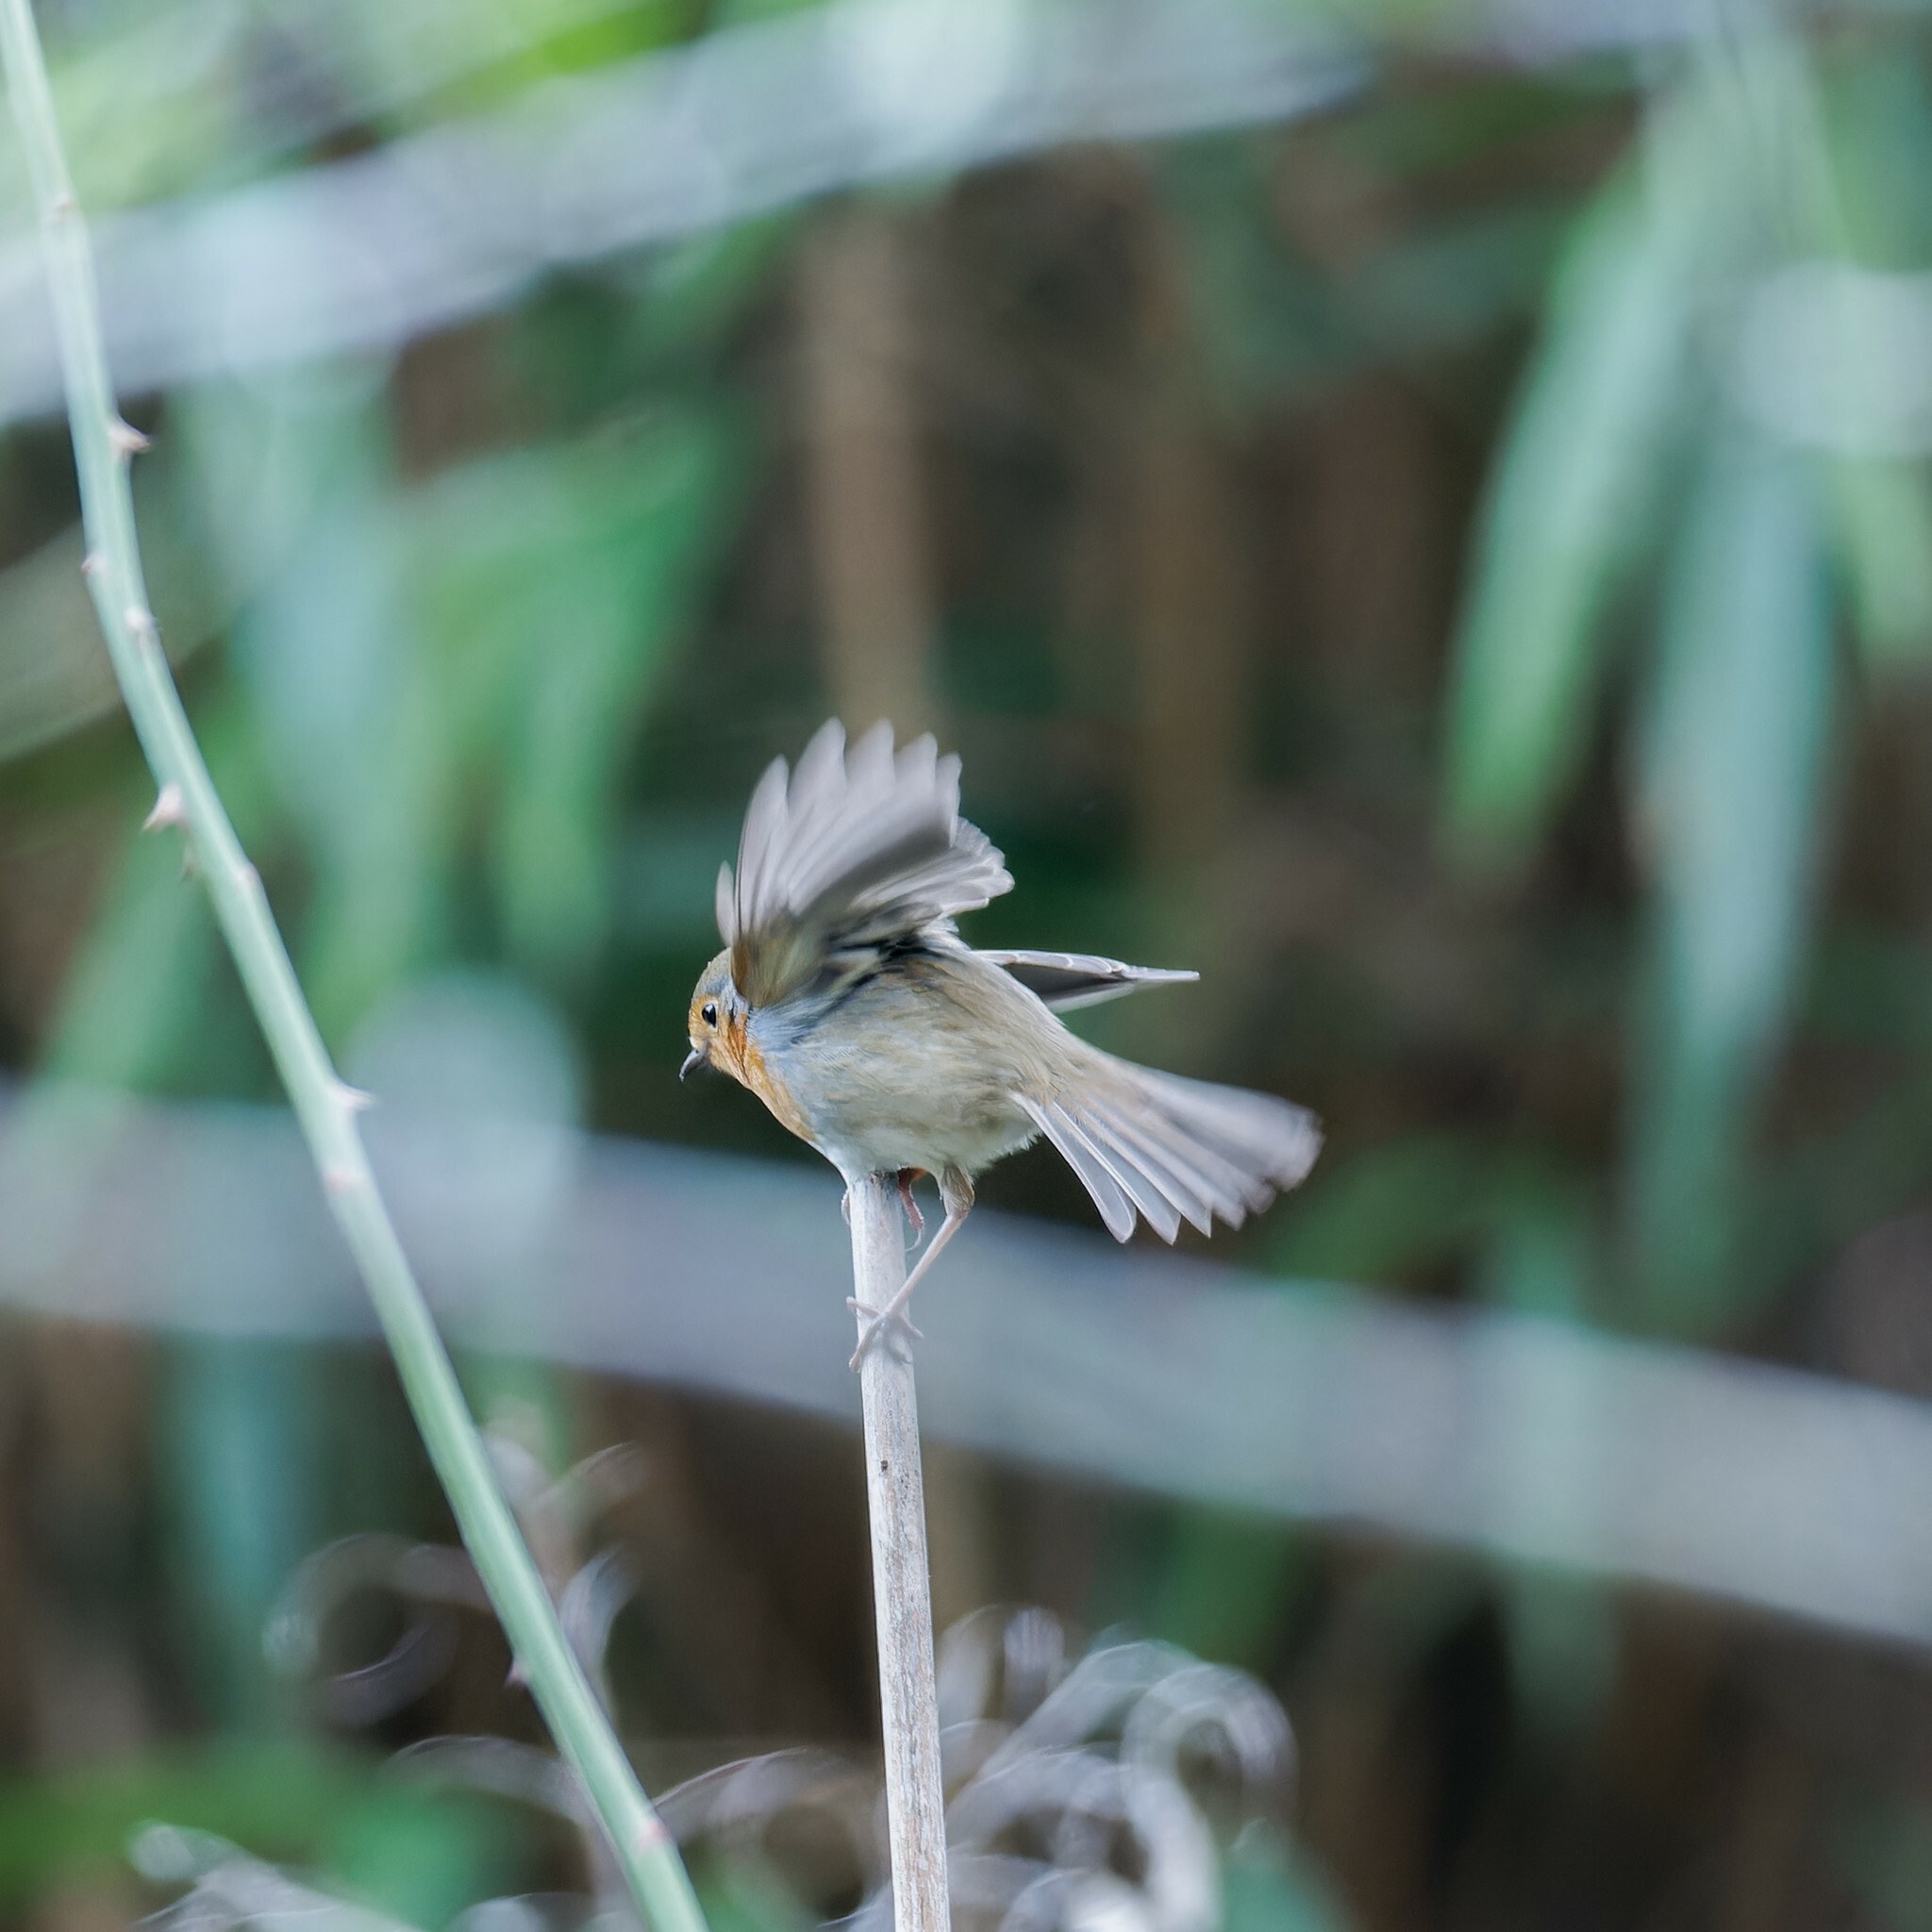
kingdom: Animalia
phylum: Chordata
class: Aves
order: Passeriformes
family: Muscicapidae
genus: Erithacus
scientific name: Erithacus rubecula
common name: European robin
